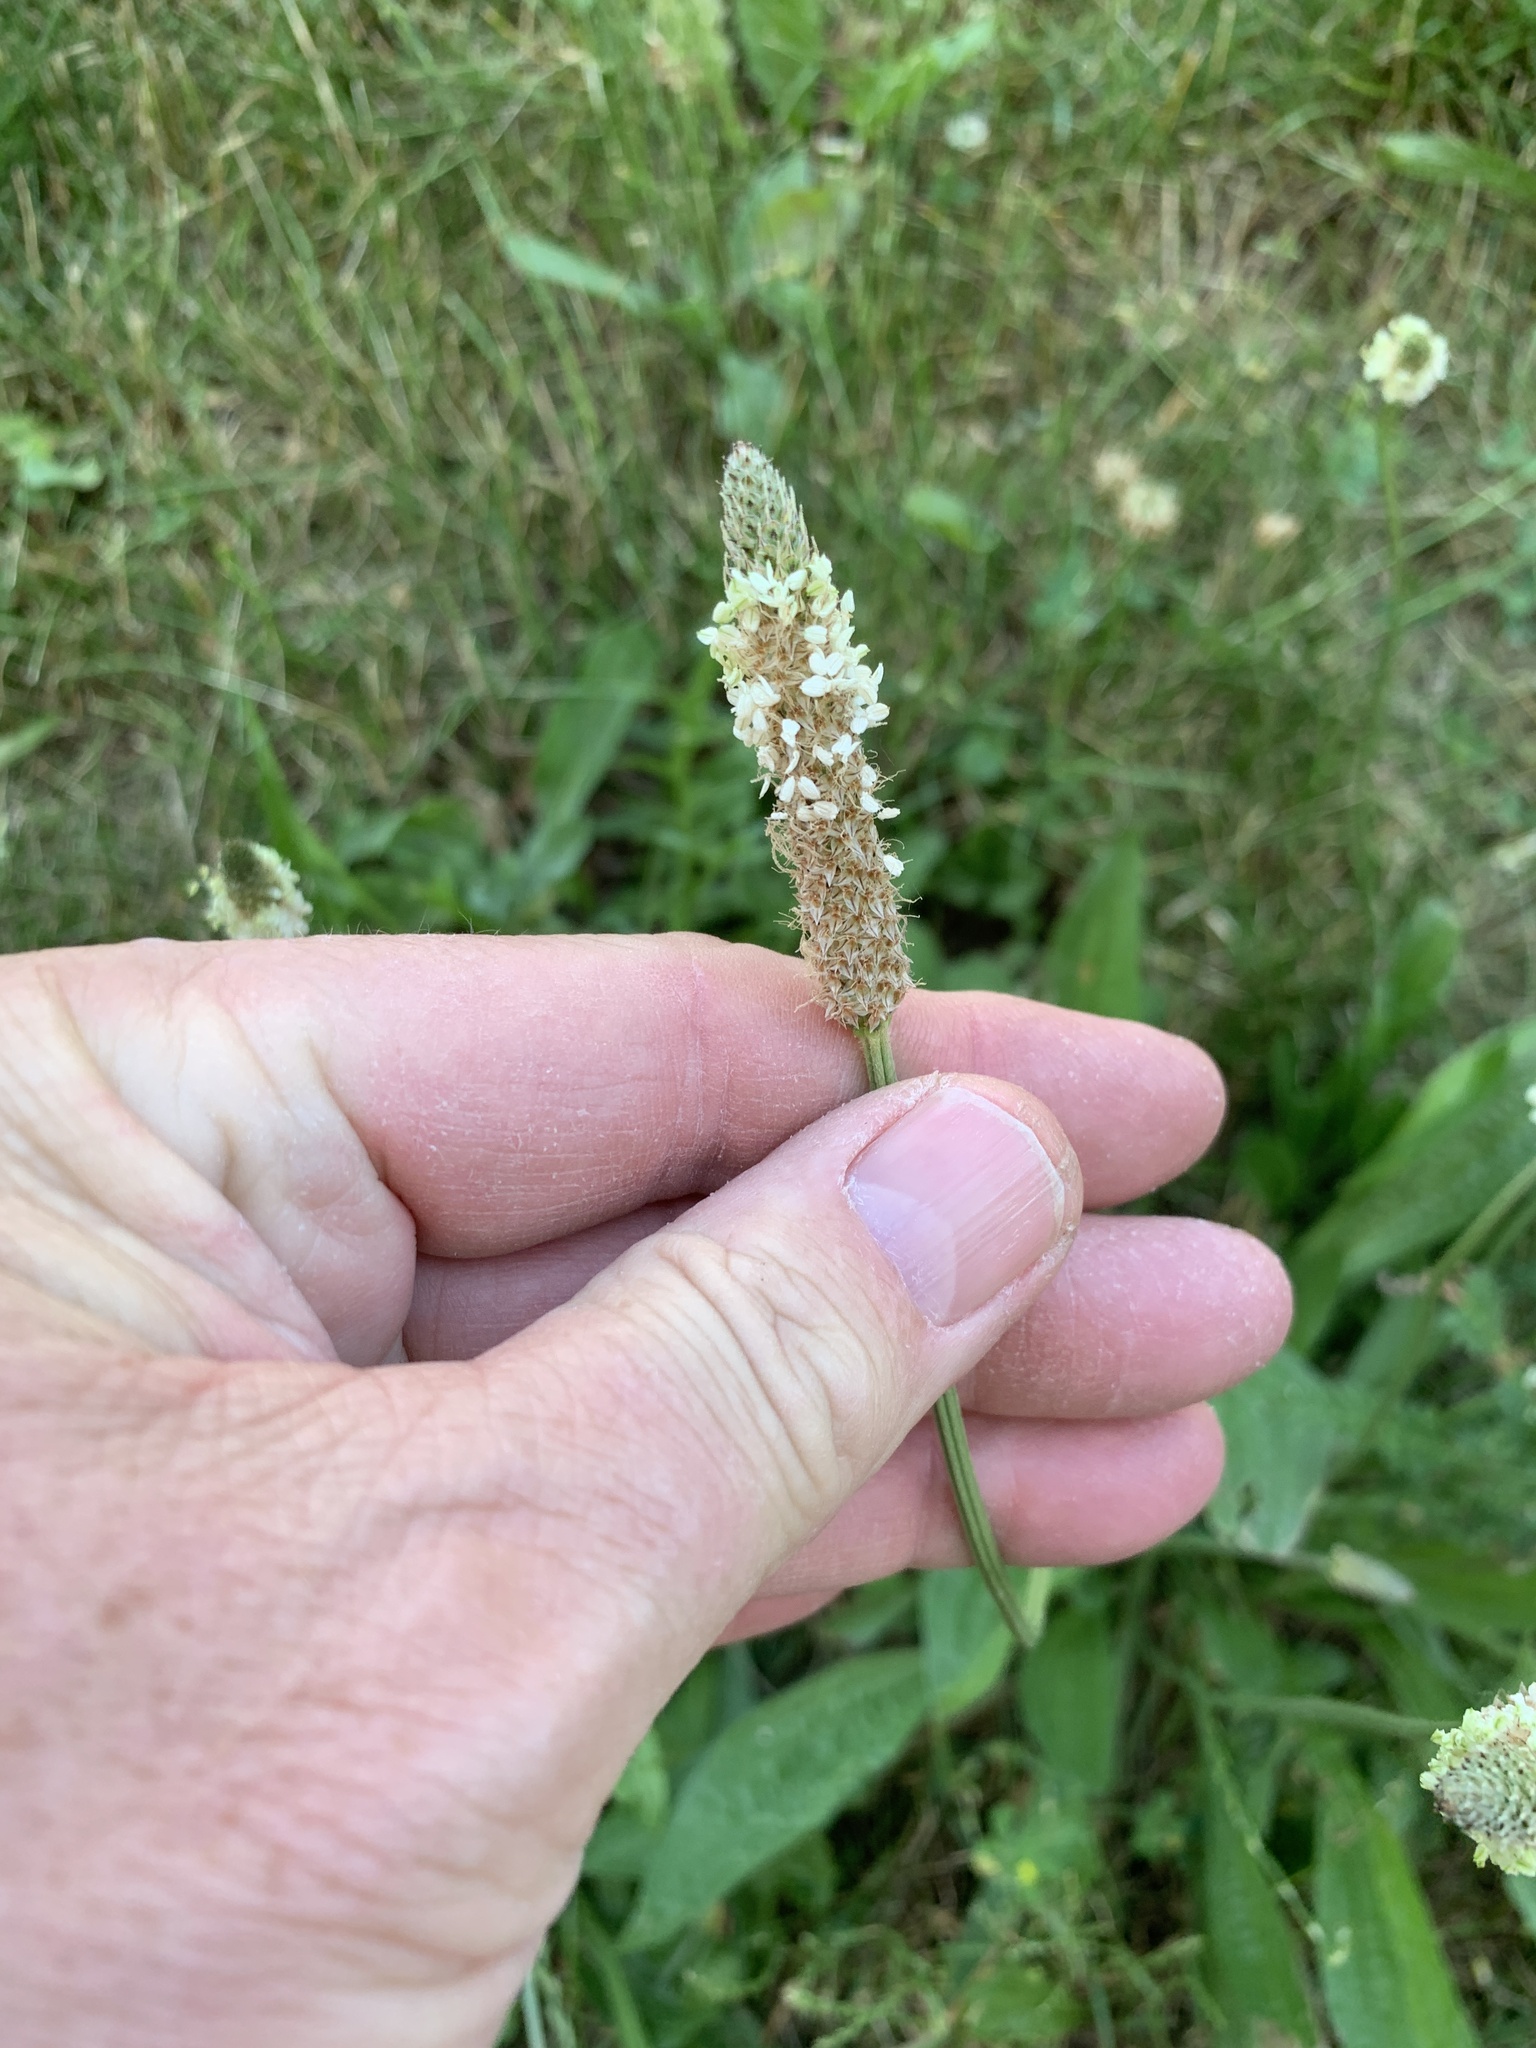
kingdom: Plantae
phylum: Tracheophyta
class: Magnoliopsida
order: Lamiales
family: Plantaginaceae
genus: Plantago
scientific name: Plantago lanceolata
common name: Ribwort plantain
